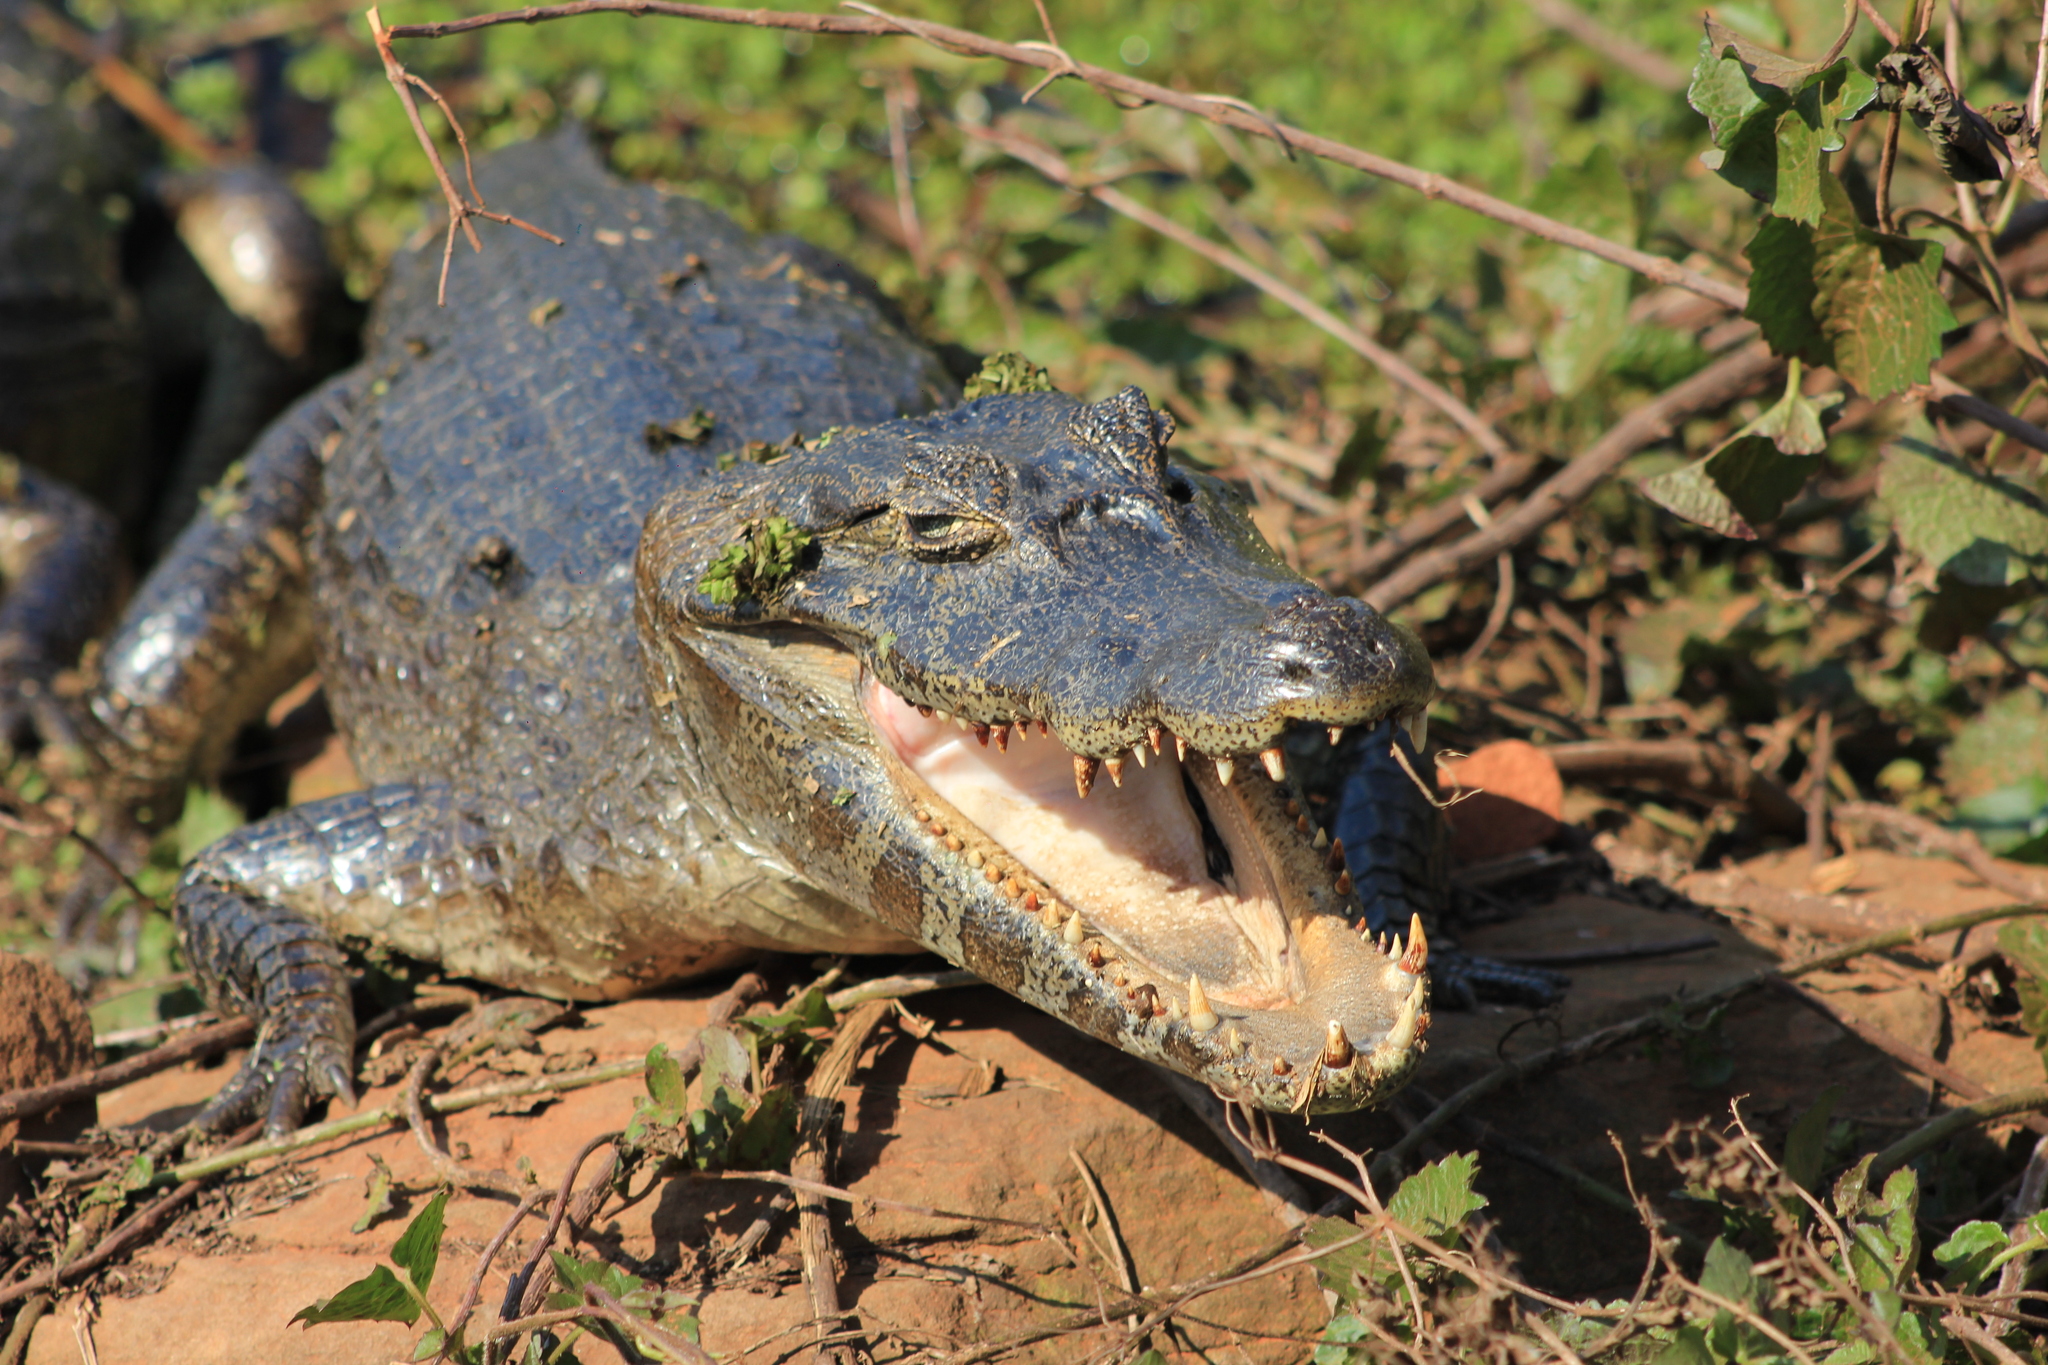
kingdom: Animalia
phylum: Chordata
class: Crocodylia
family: Alligatoridae
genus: Caiman
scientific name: Caiman yacare
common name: Yacare caiman
